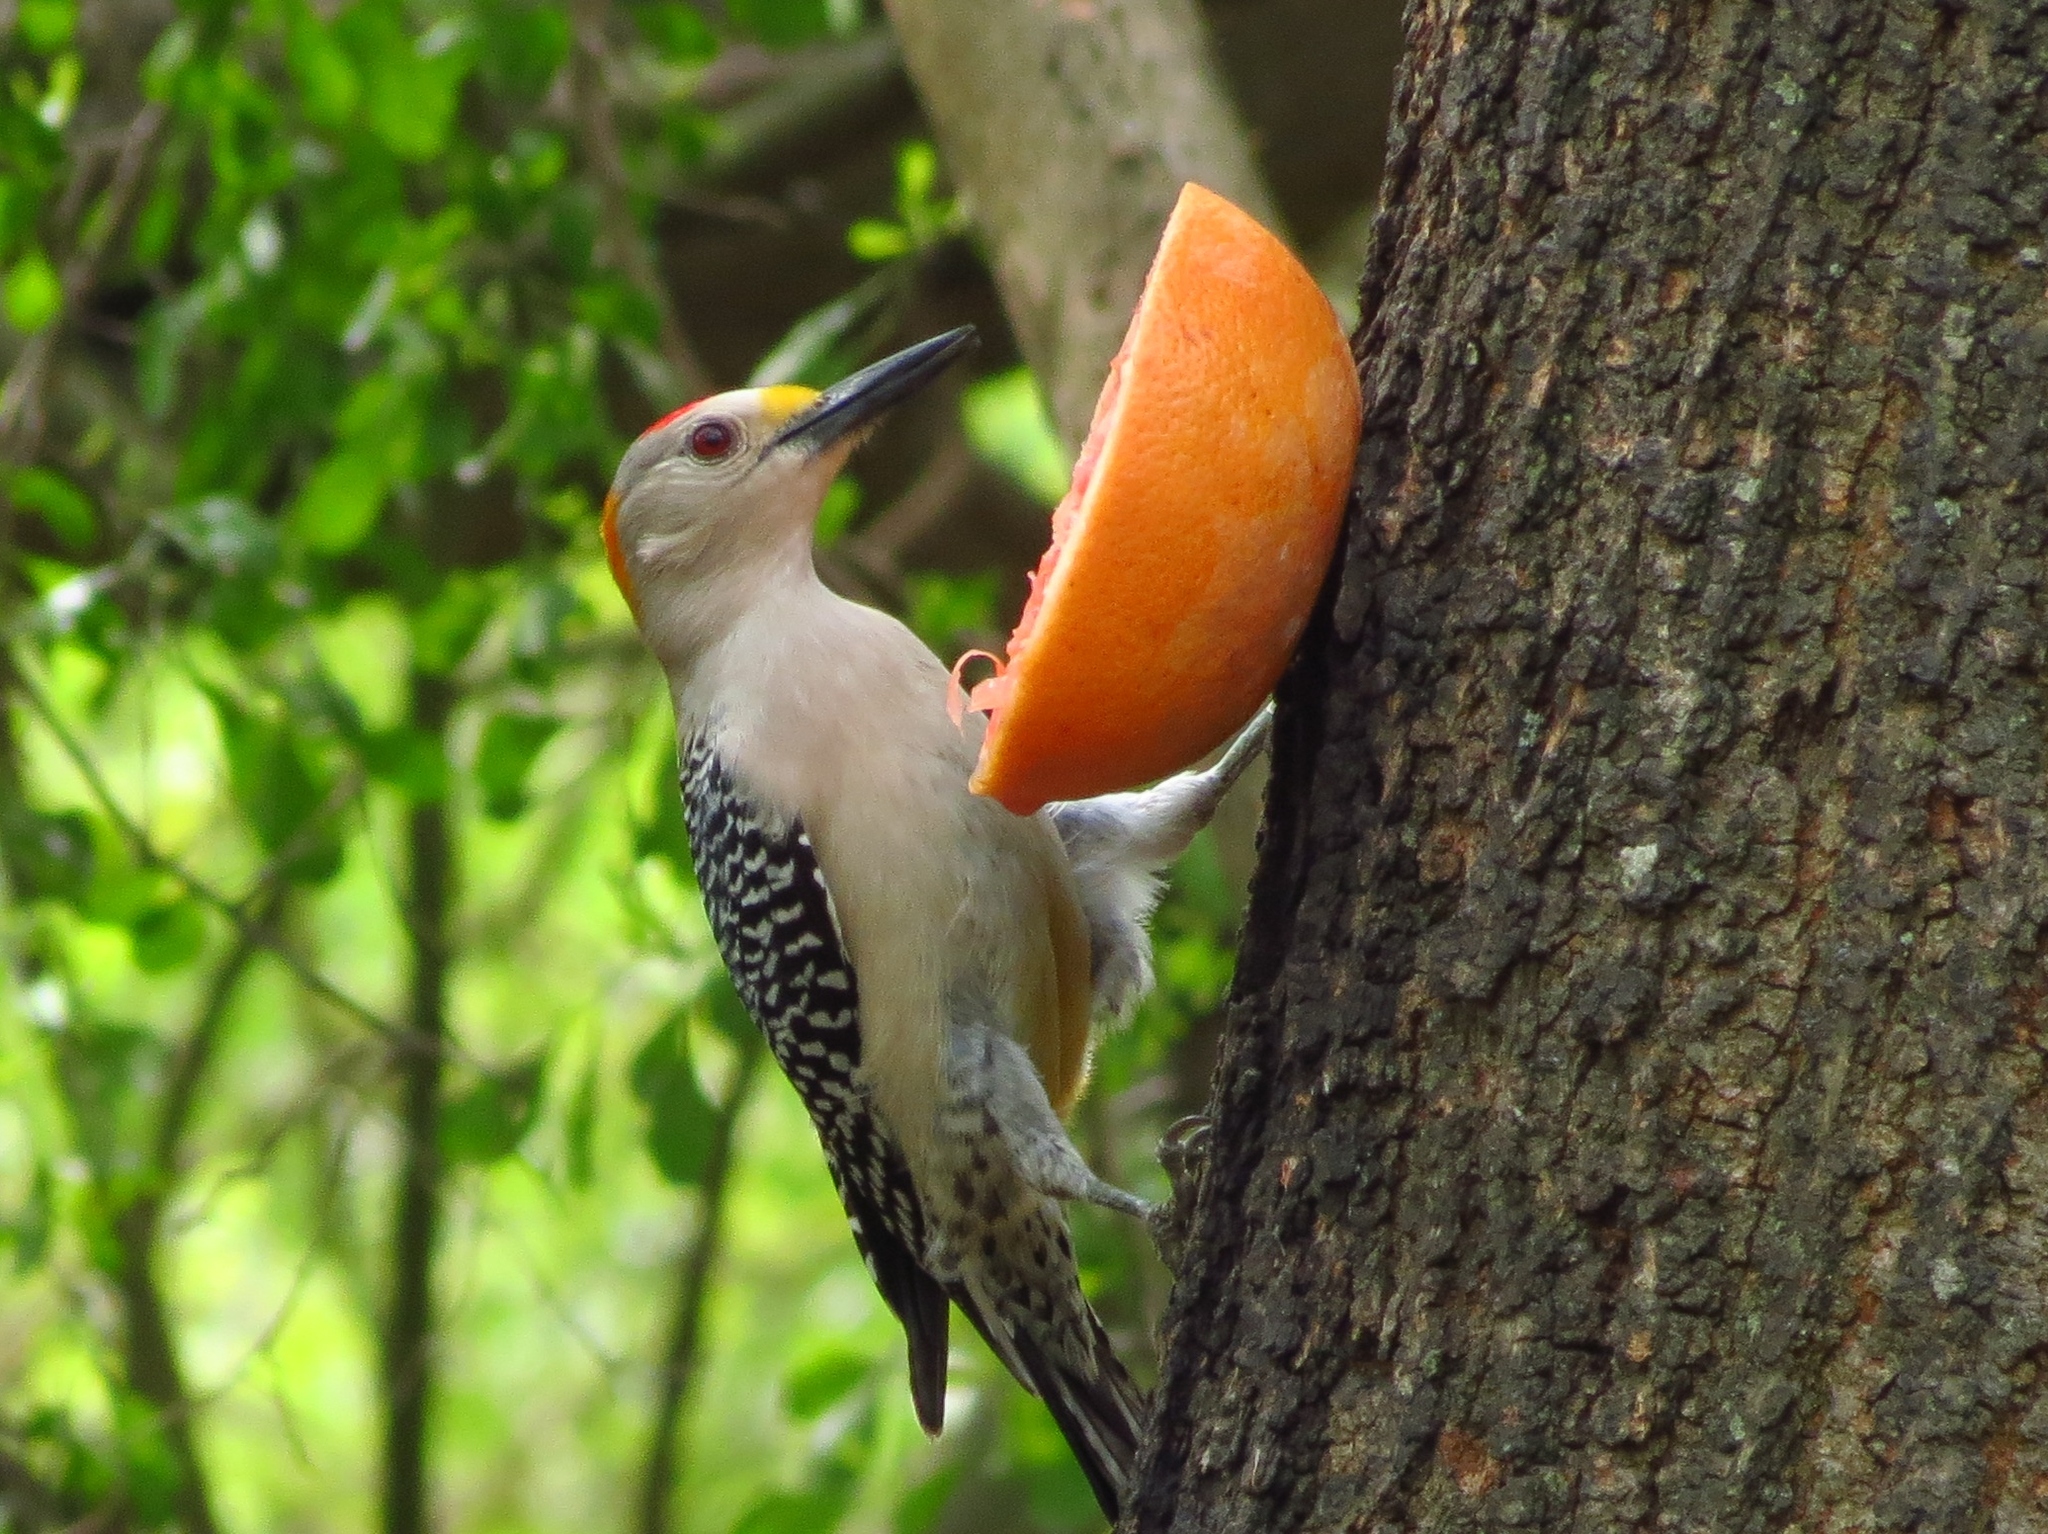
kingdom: Animalia
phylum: Chordata
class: Aves
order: Piciformes
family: Picidae
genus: Melanerpes
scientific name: Melanerpes aurifrons
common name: Golden-fronted woodpecker
